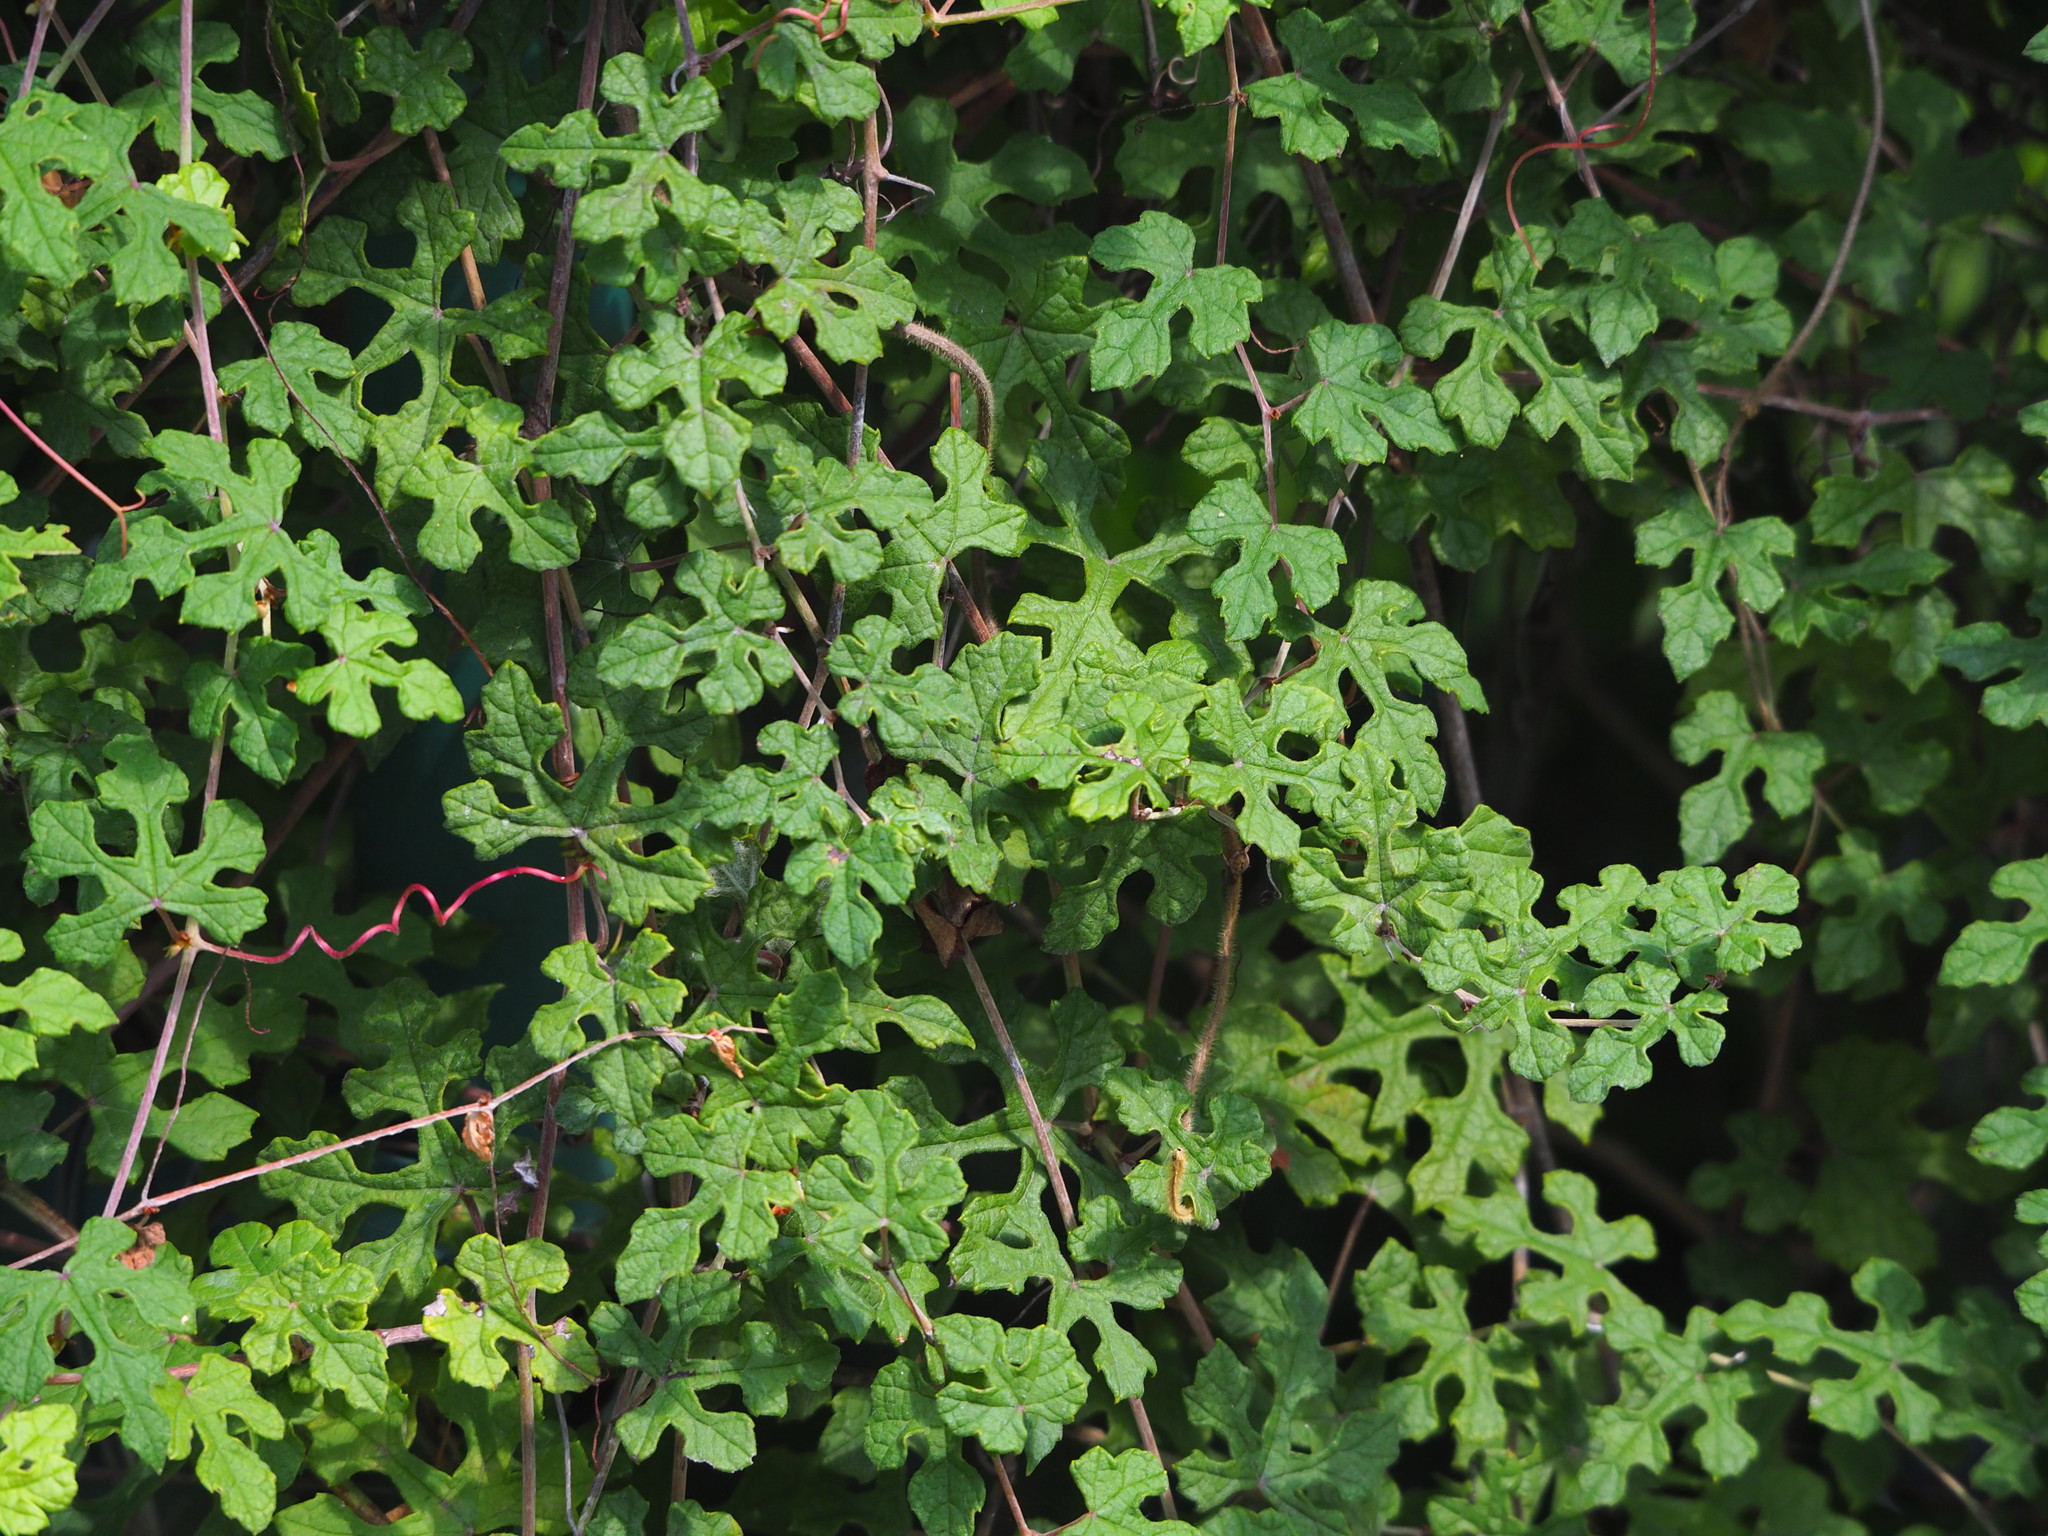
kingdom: Plantae
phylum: Tracheophyta
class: Magnoliopsida
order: Vitales
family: Vitaceae
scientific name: Vitaceae
